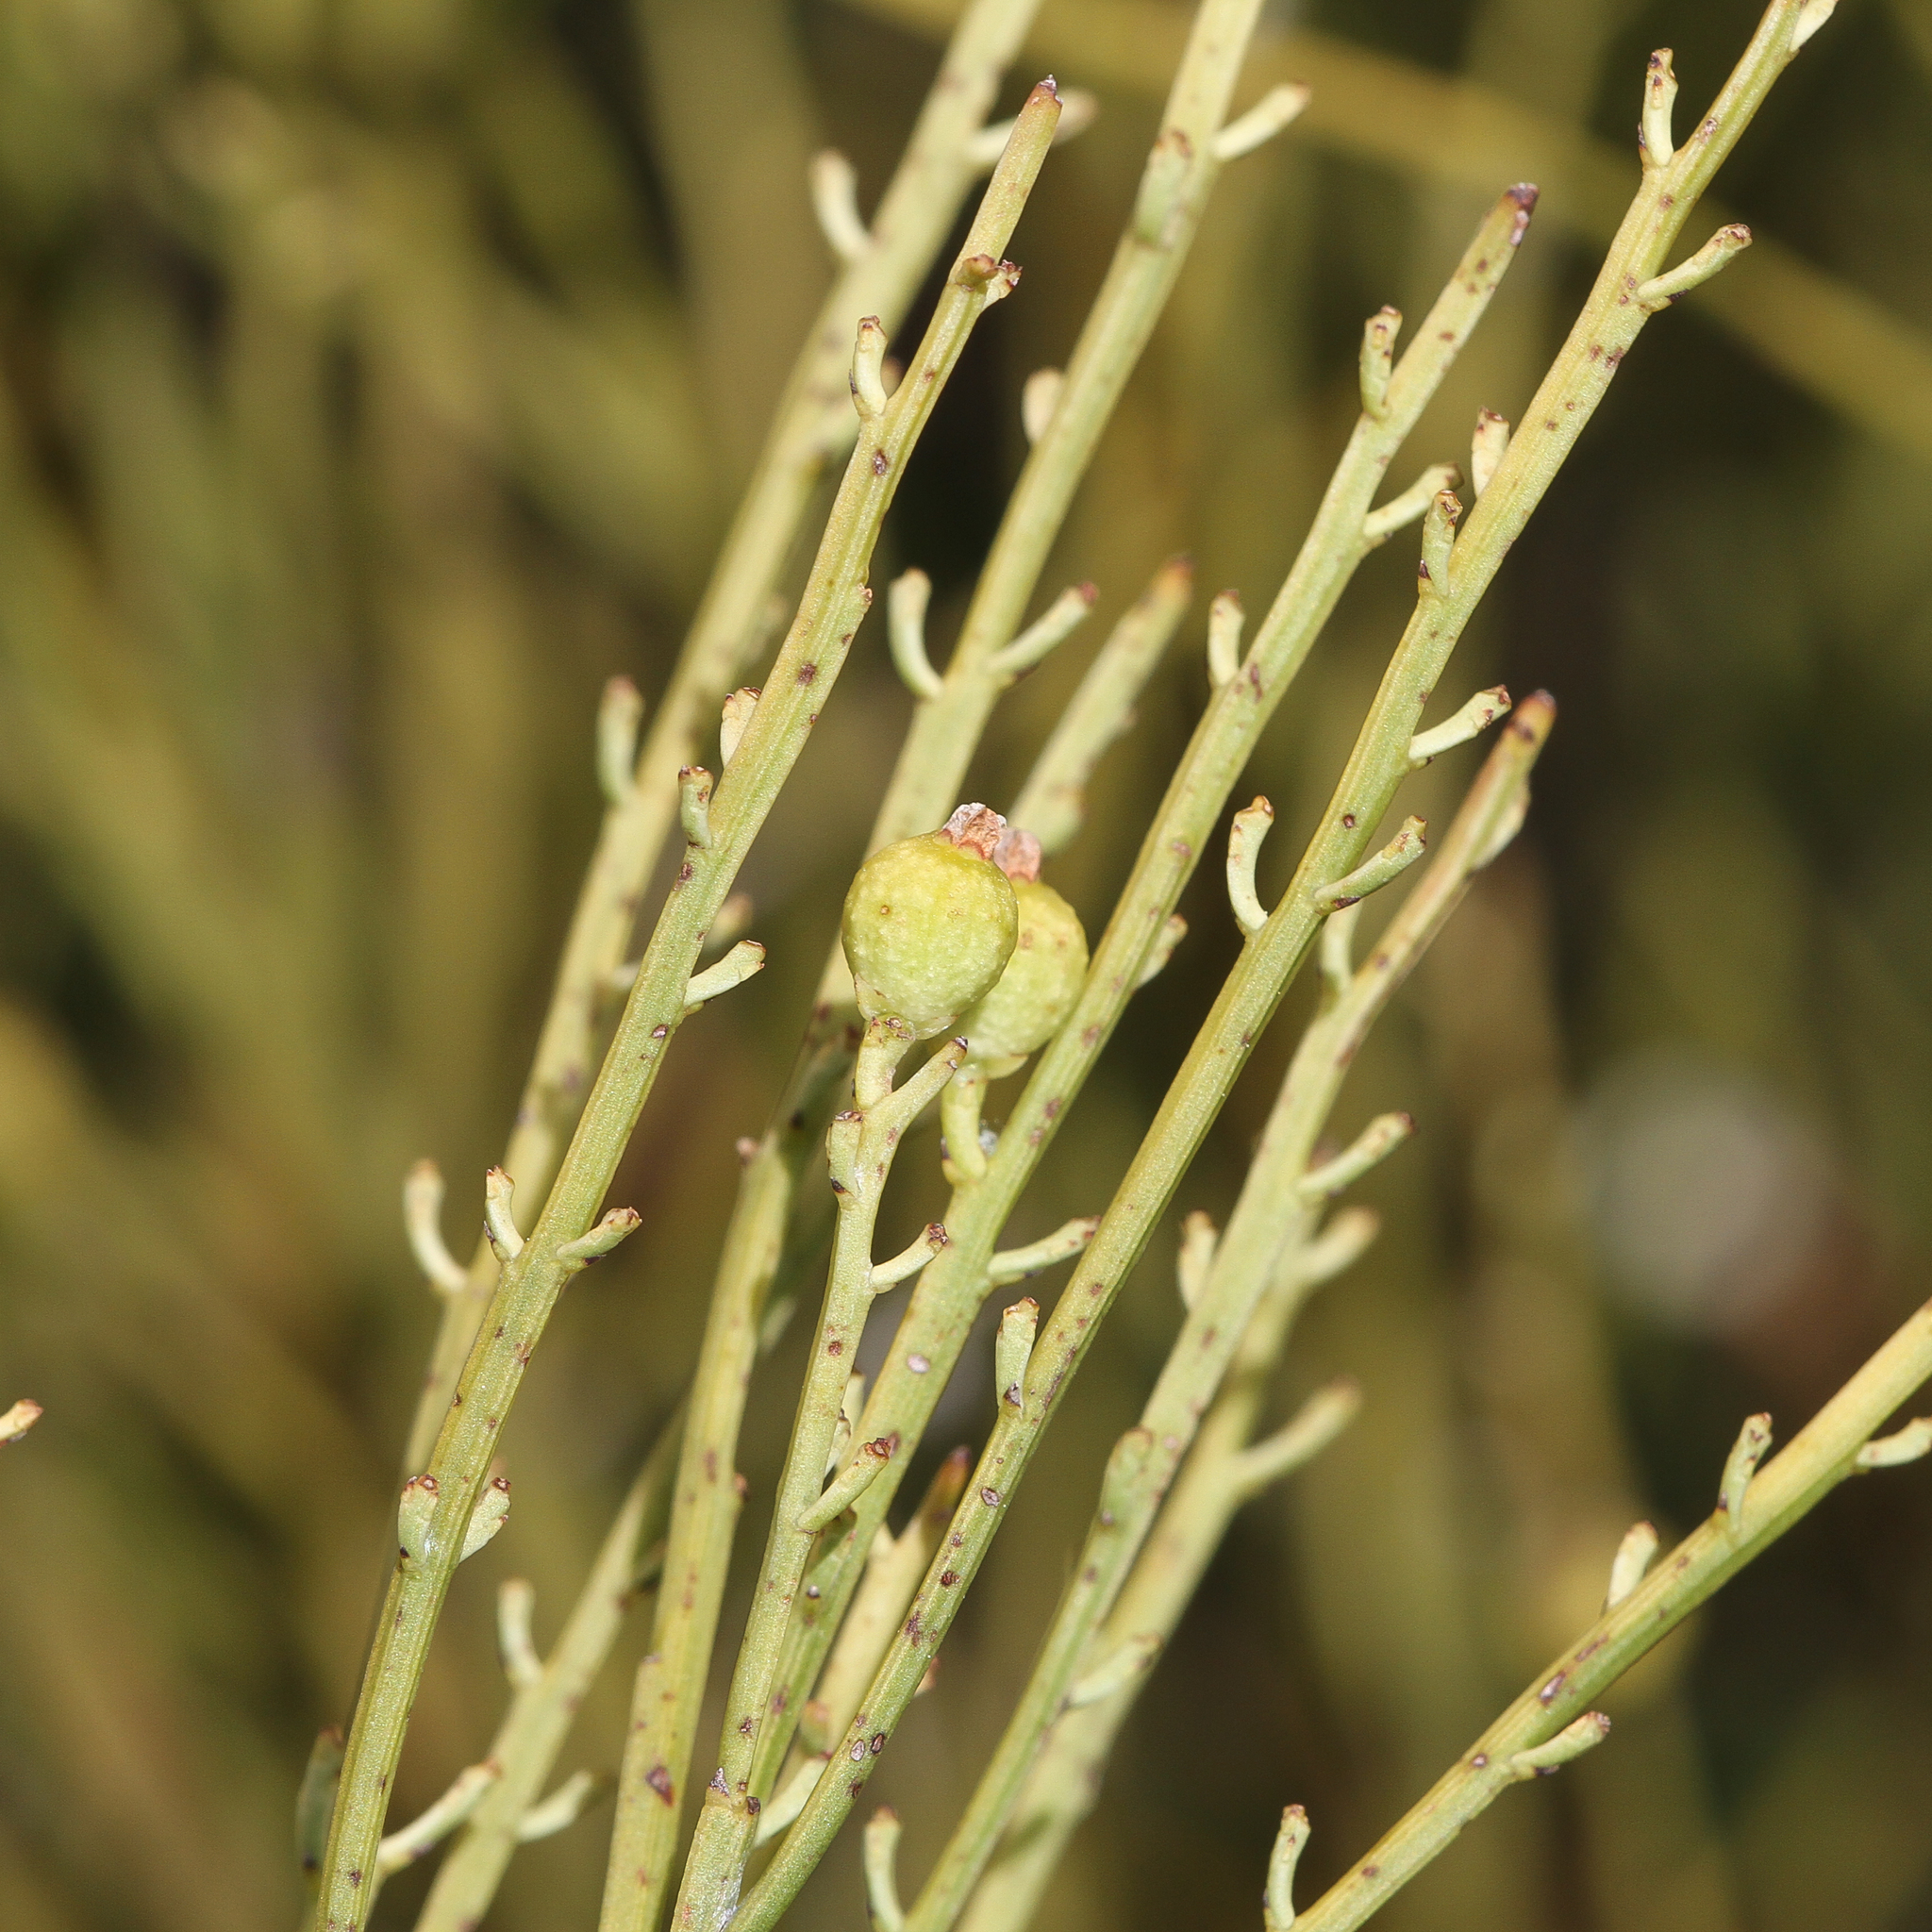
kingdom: Plantae
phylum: Tracheophyta
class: Magnoliopsida
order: Santalales
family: Amphorogynaceae
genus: Choretrum
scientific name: Choretrum glomeratum
